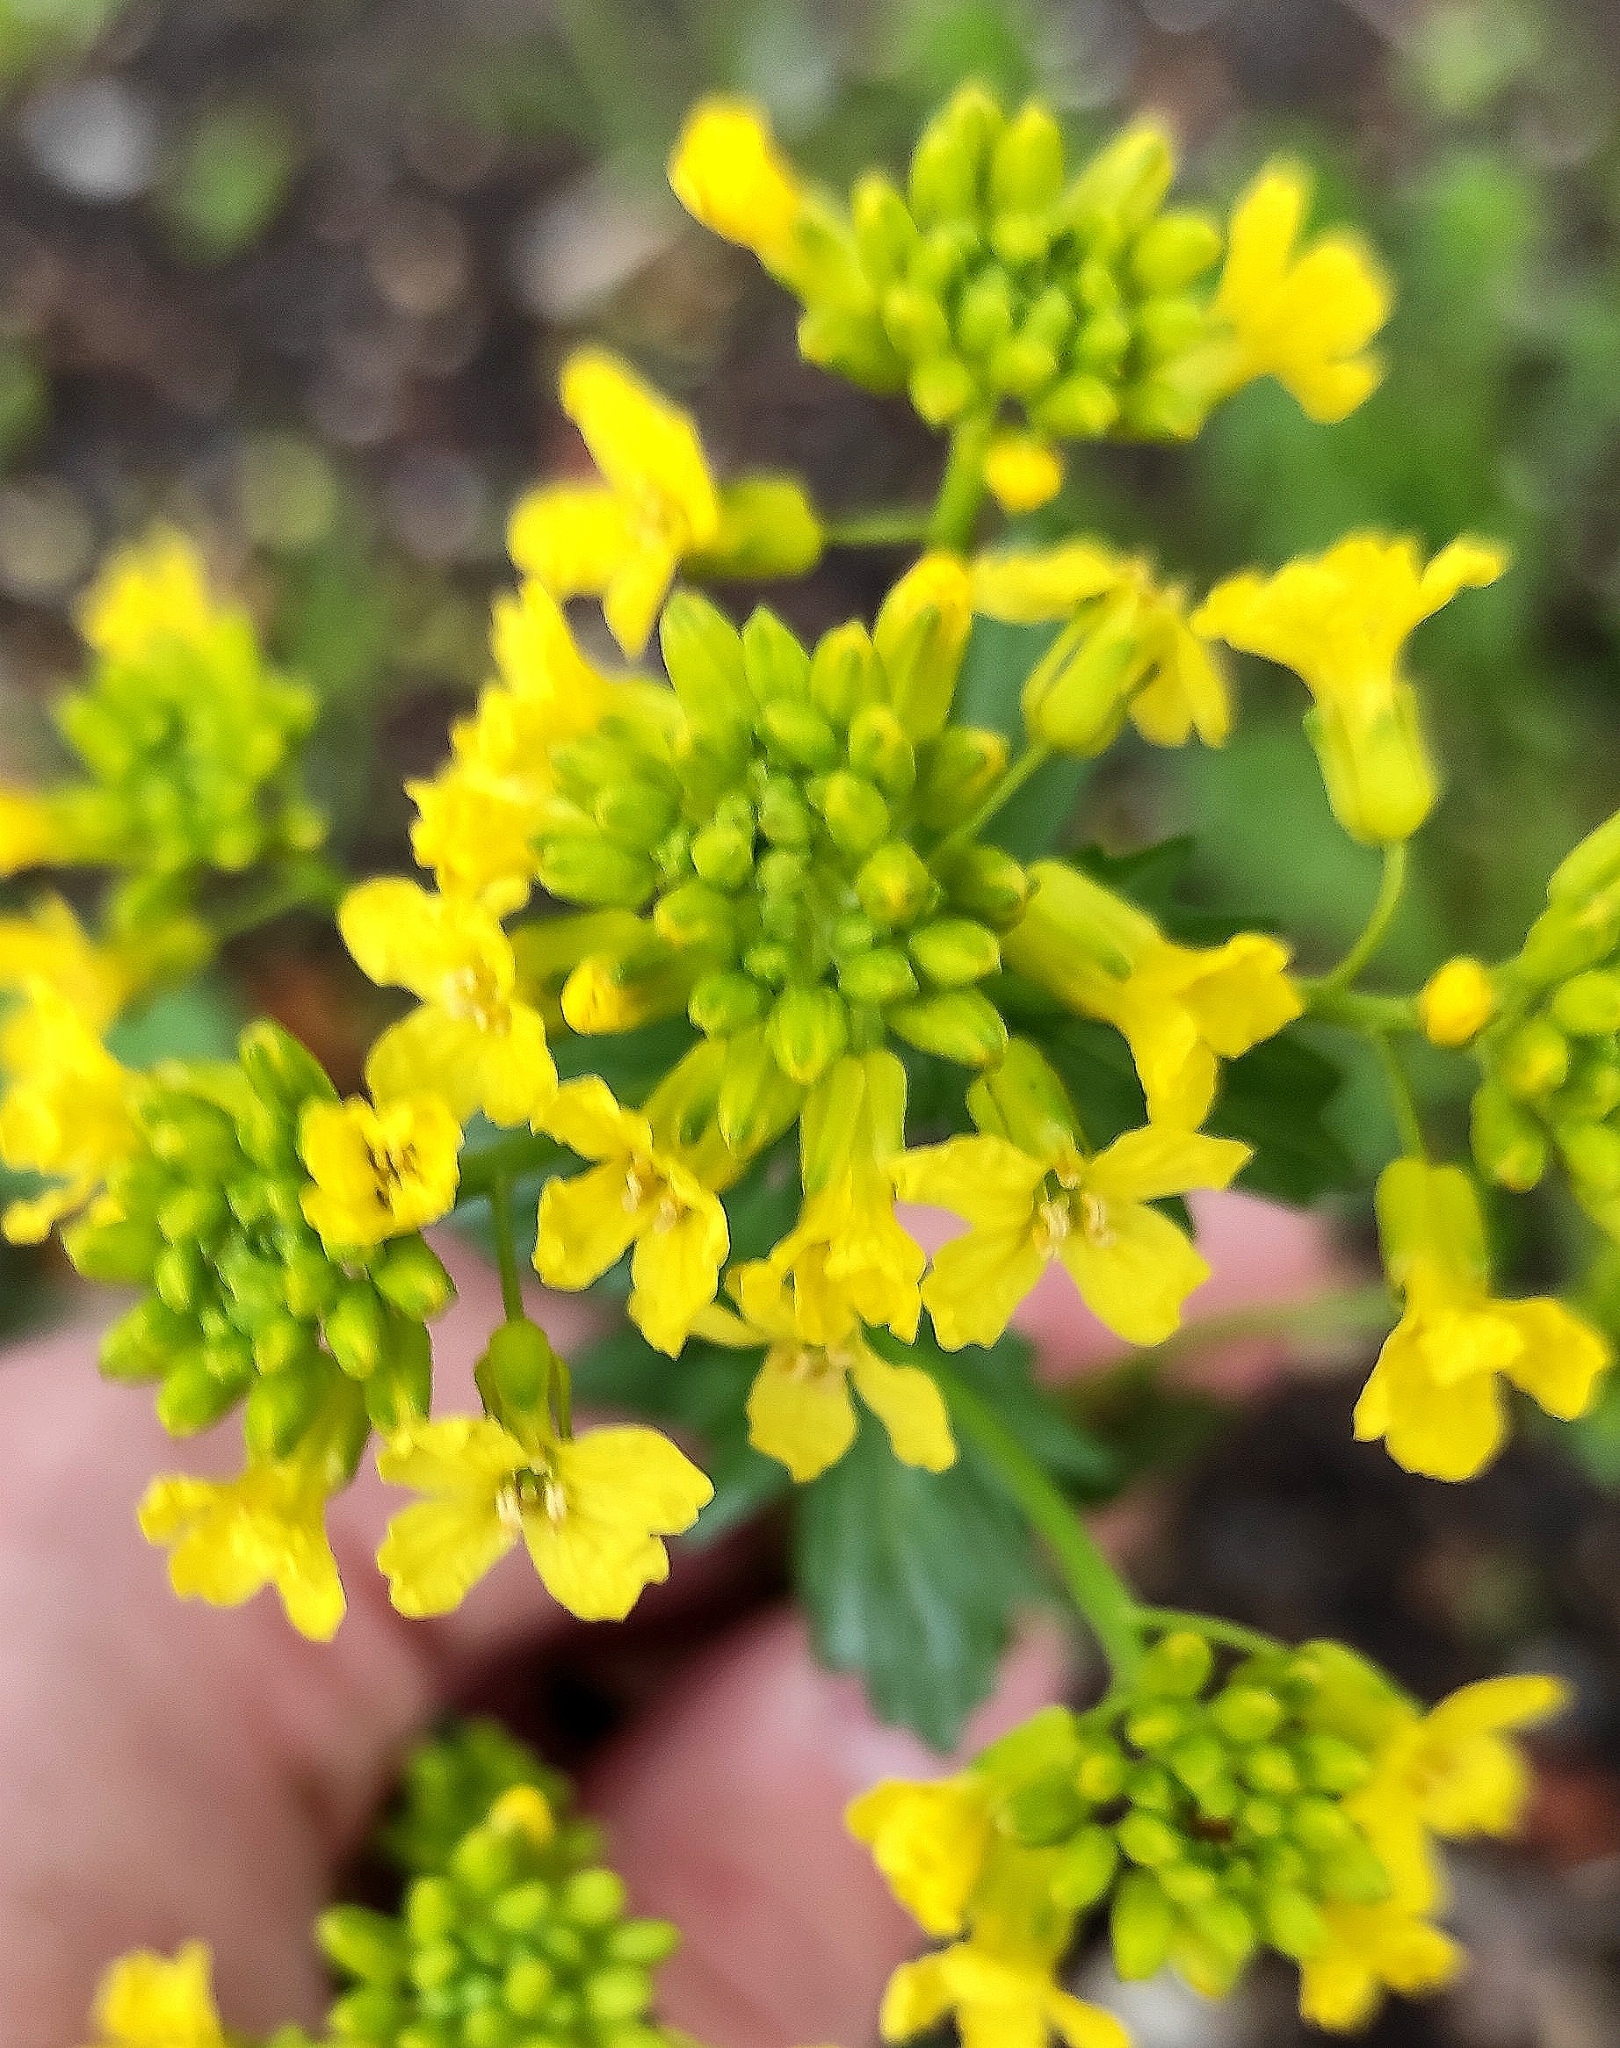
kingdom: Plantae
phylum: Tracheophyta
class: Magnoliopsida
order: Brassicales
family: Brassicaceae
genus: Barbarea
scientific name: Barbarea vulgaris
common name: Cressy-greens
